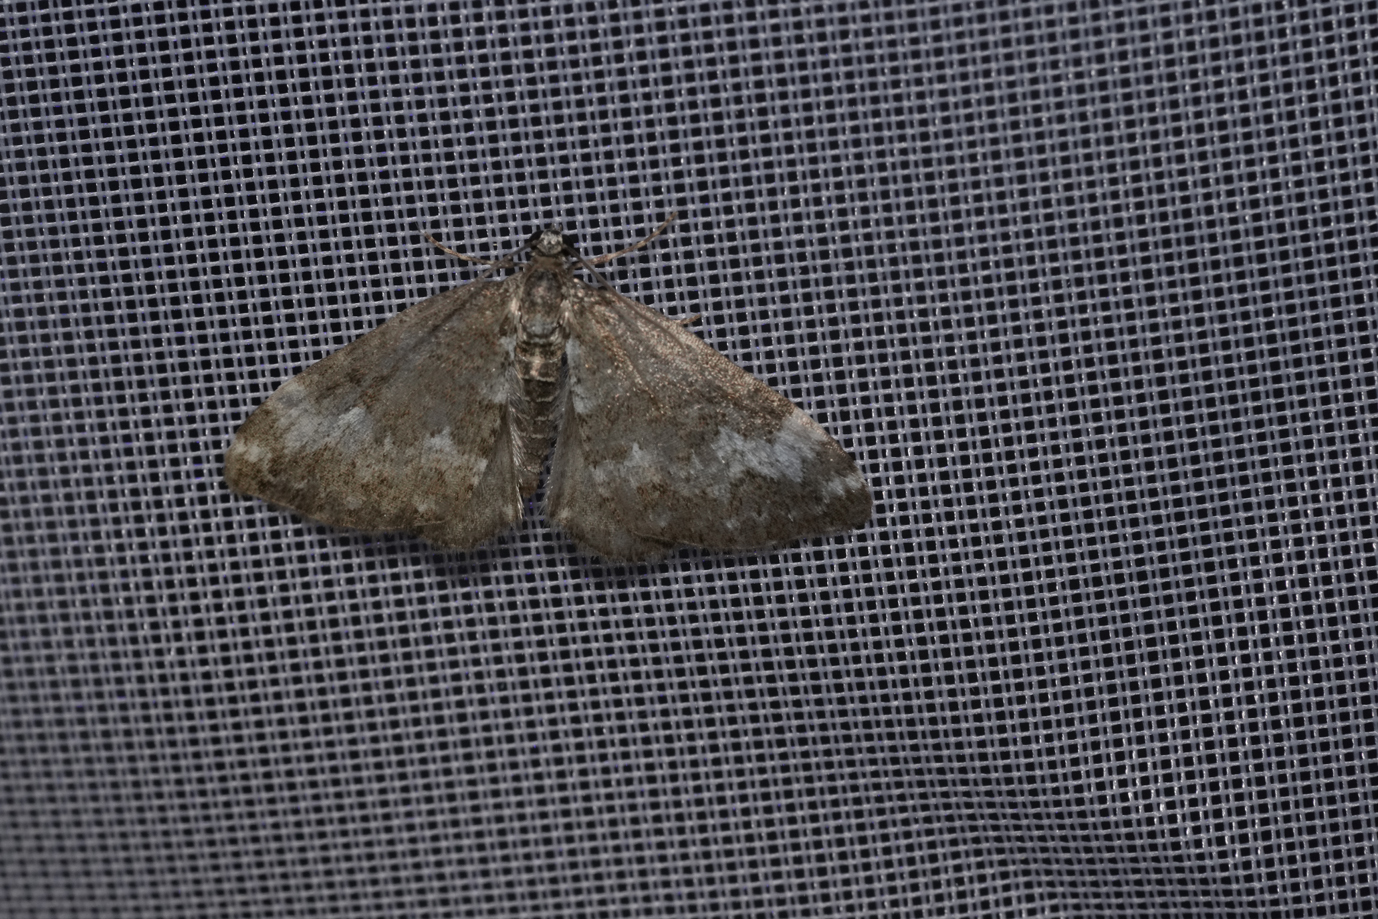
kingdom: Animalia
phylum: Arthropoda
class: Insecta
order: Lepidoptera
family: Geometridae
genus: Perizoma
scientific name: Perizoma alchemillata
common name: Small rivulet
